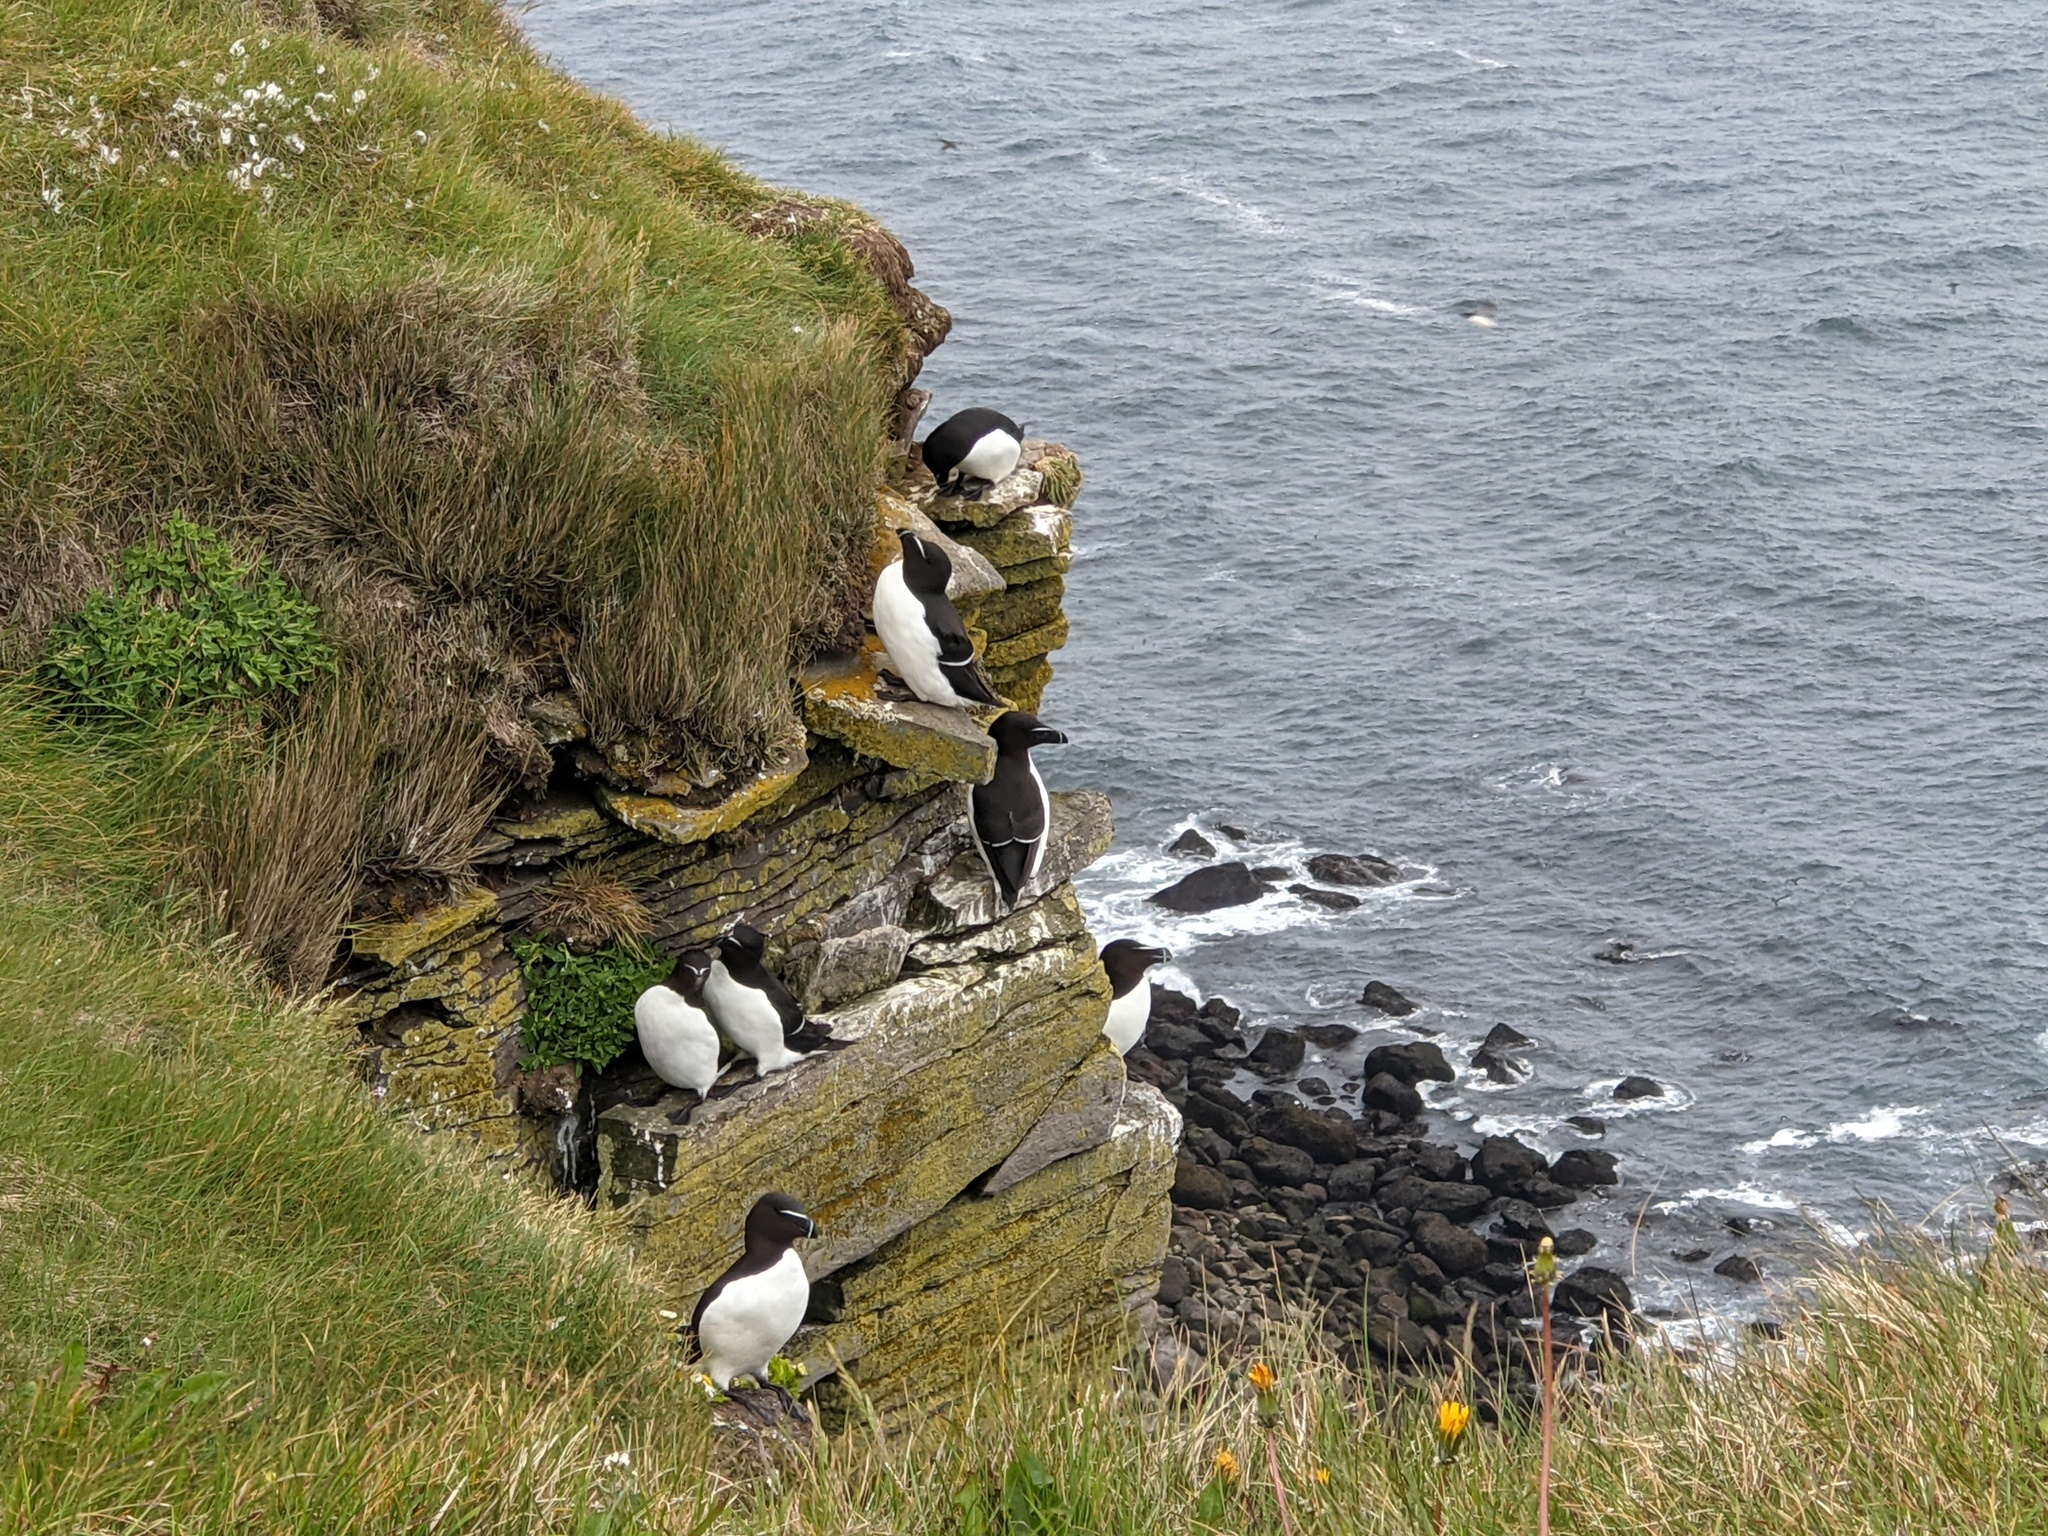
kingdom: Animalia
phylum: Chordata
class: Aves
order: Charadriiformes
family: Alcidae
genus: Alca
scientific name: Alca torda
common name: Razorbill
